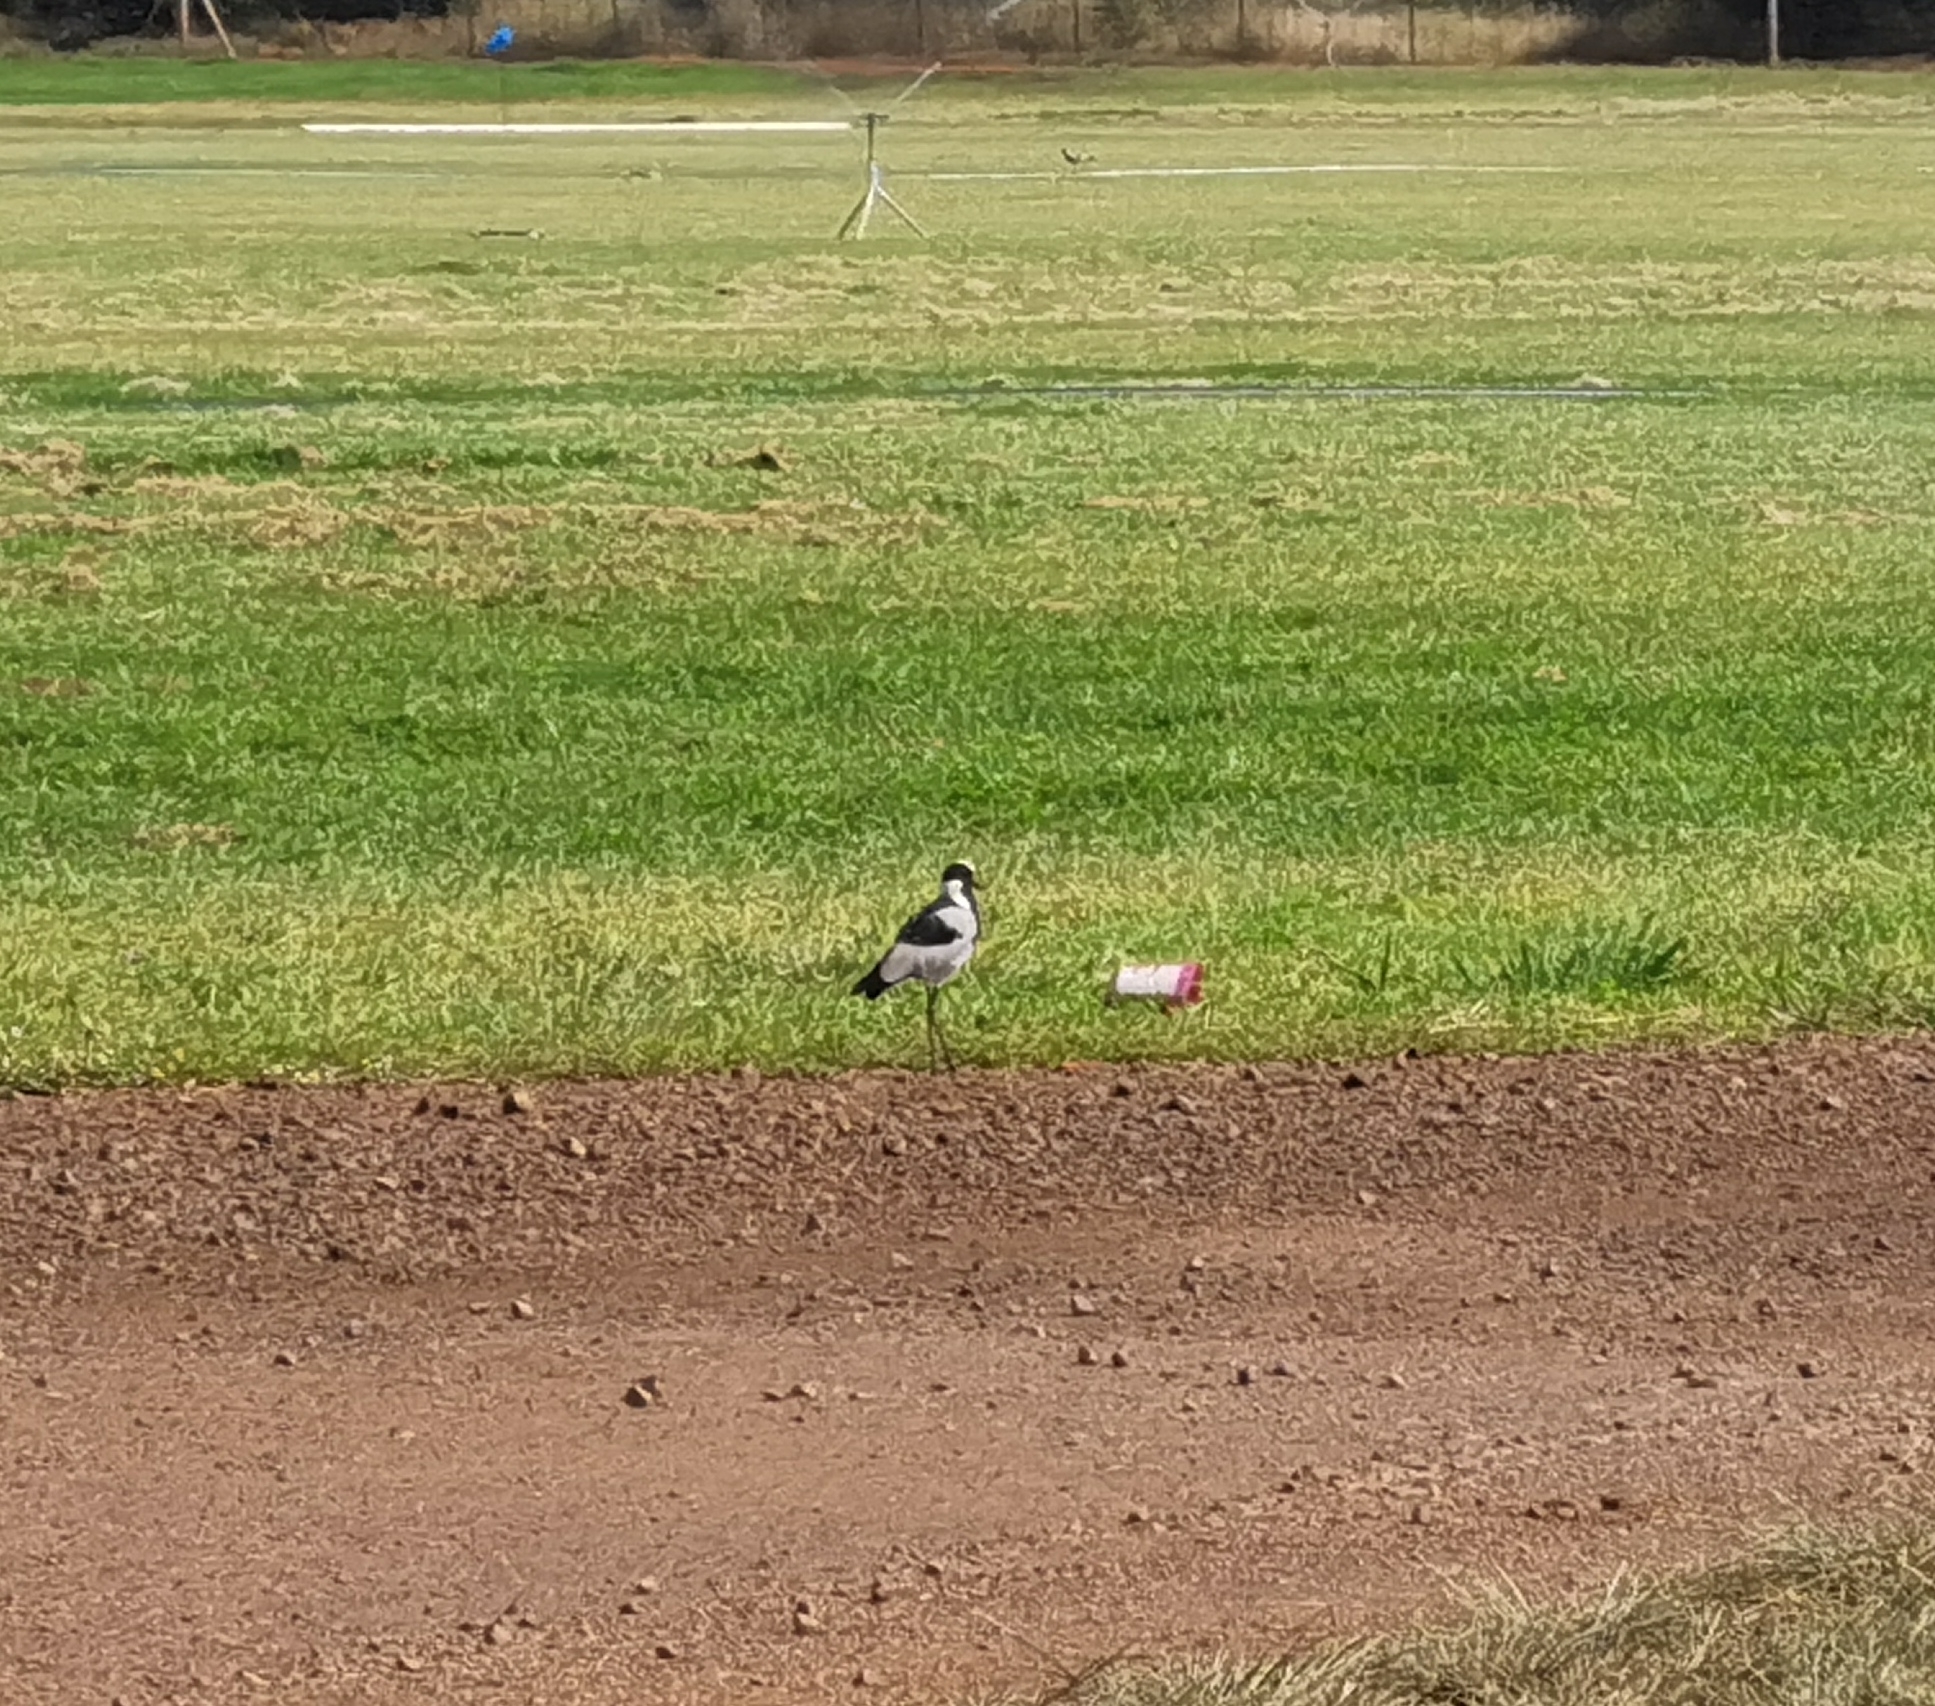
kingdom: Animalia
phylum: Chordata
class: Aves
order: Charadriiformes
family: Charadriidae
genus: Vanellus
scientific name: Vanellus armatus
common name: Blacksmith lapwing
